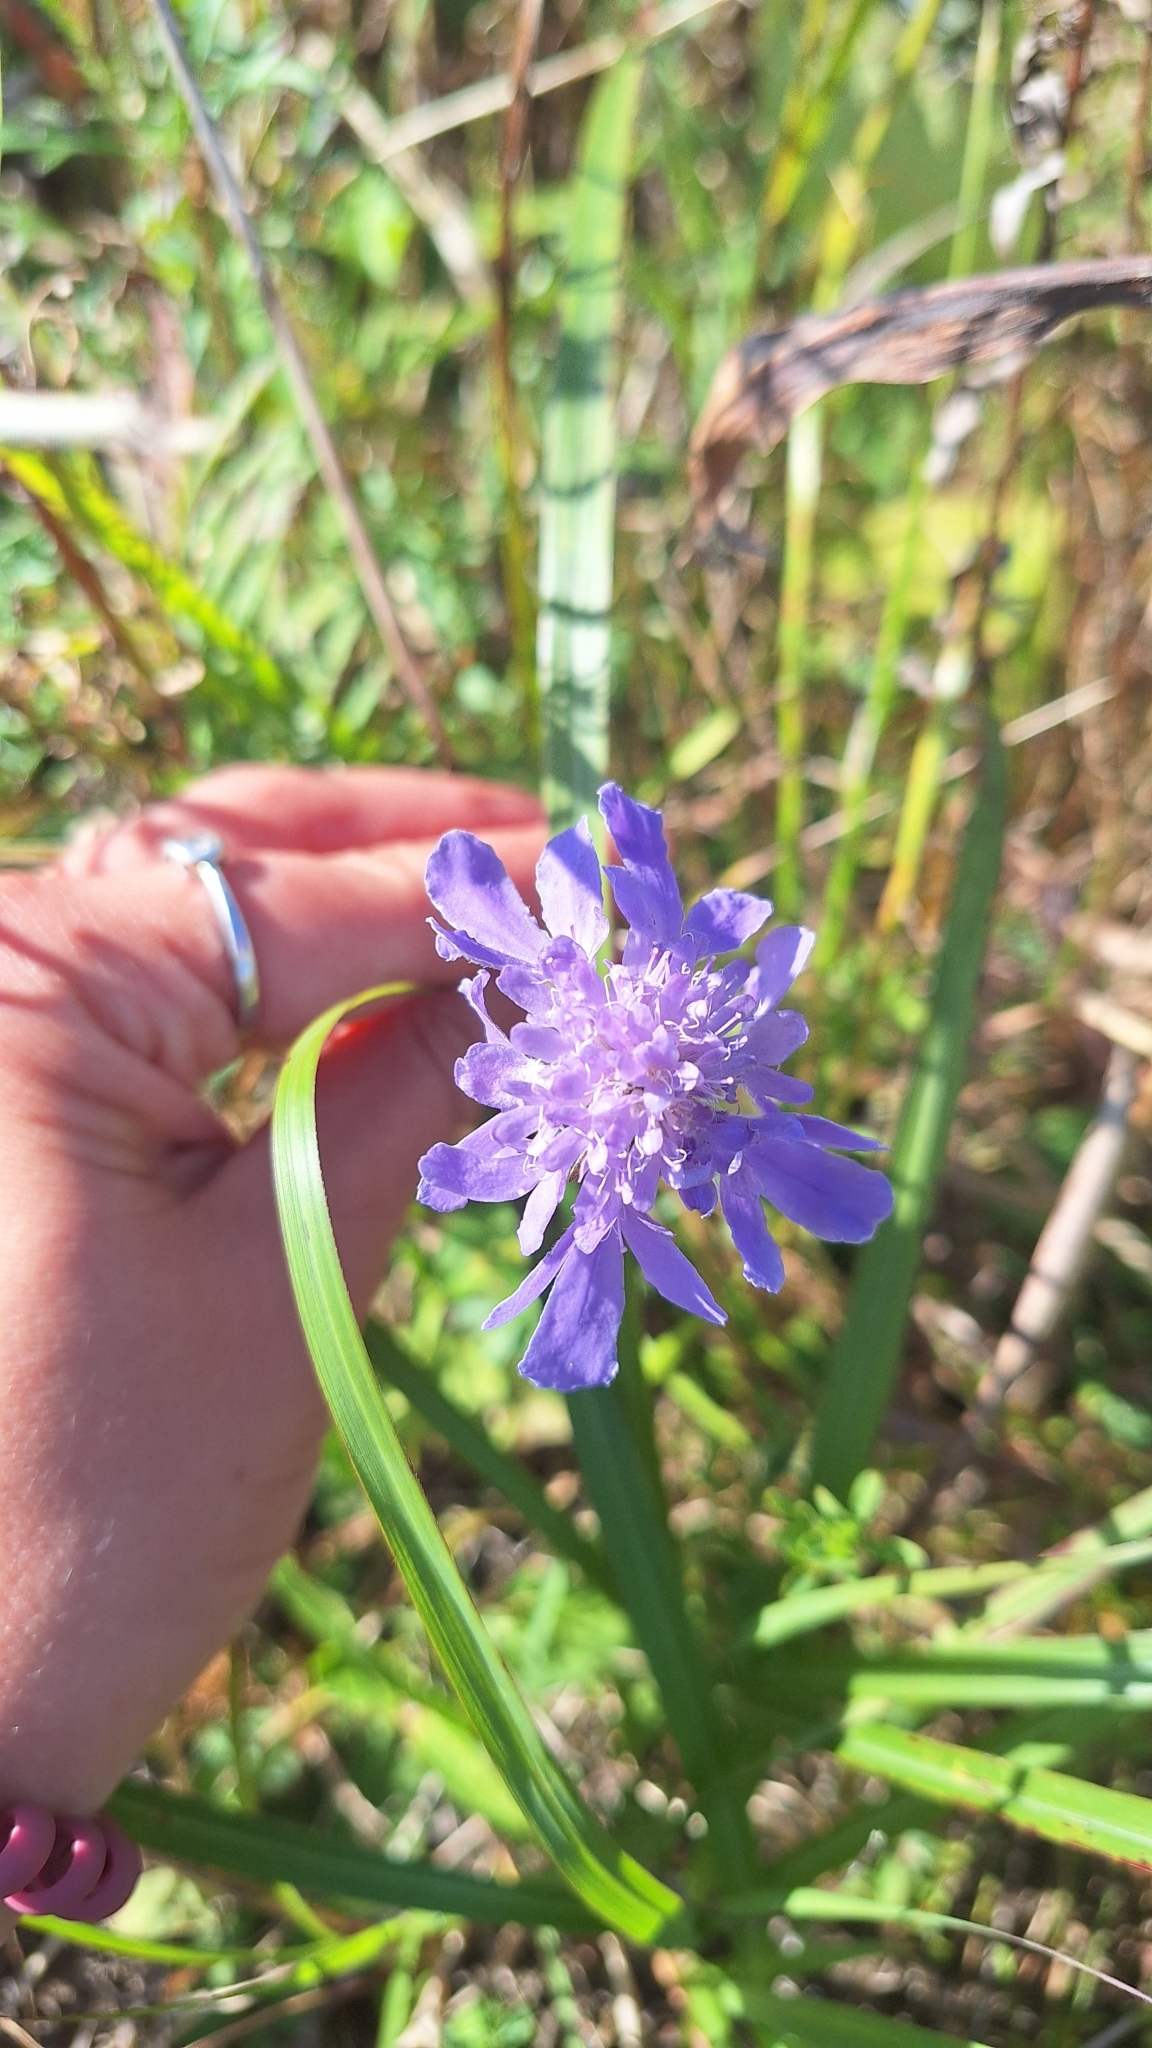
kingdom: Plantae
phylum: Tracheophyta
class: Magnoliopsida
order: Dipsacales
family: Caprifoliaceae
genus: Scabiosa
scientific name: Scabiosa lachnophylla
